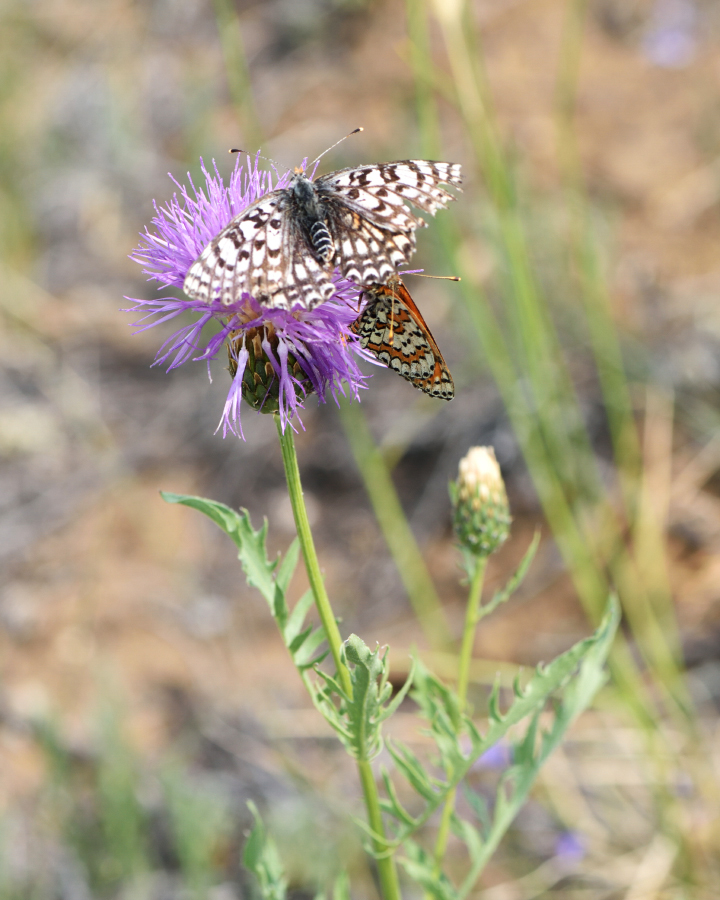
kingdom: Animalia
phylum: Arthropoda
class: Insecta
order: Lepidoptera
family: Nymphalidae
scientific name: Nymphalidae
